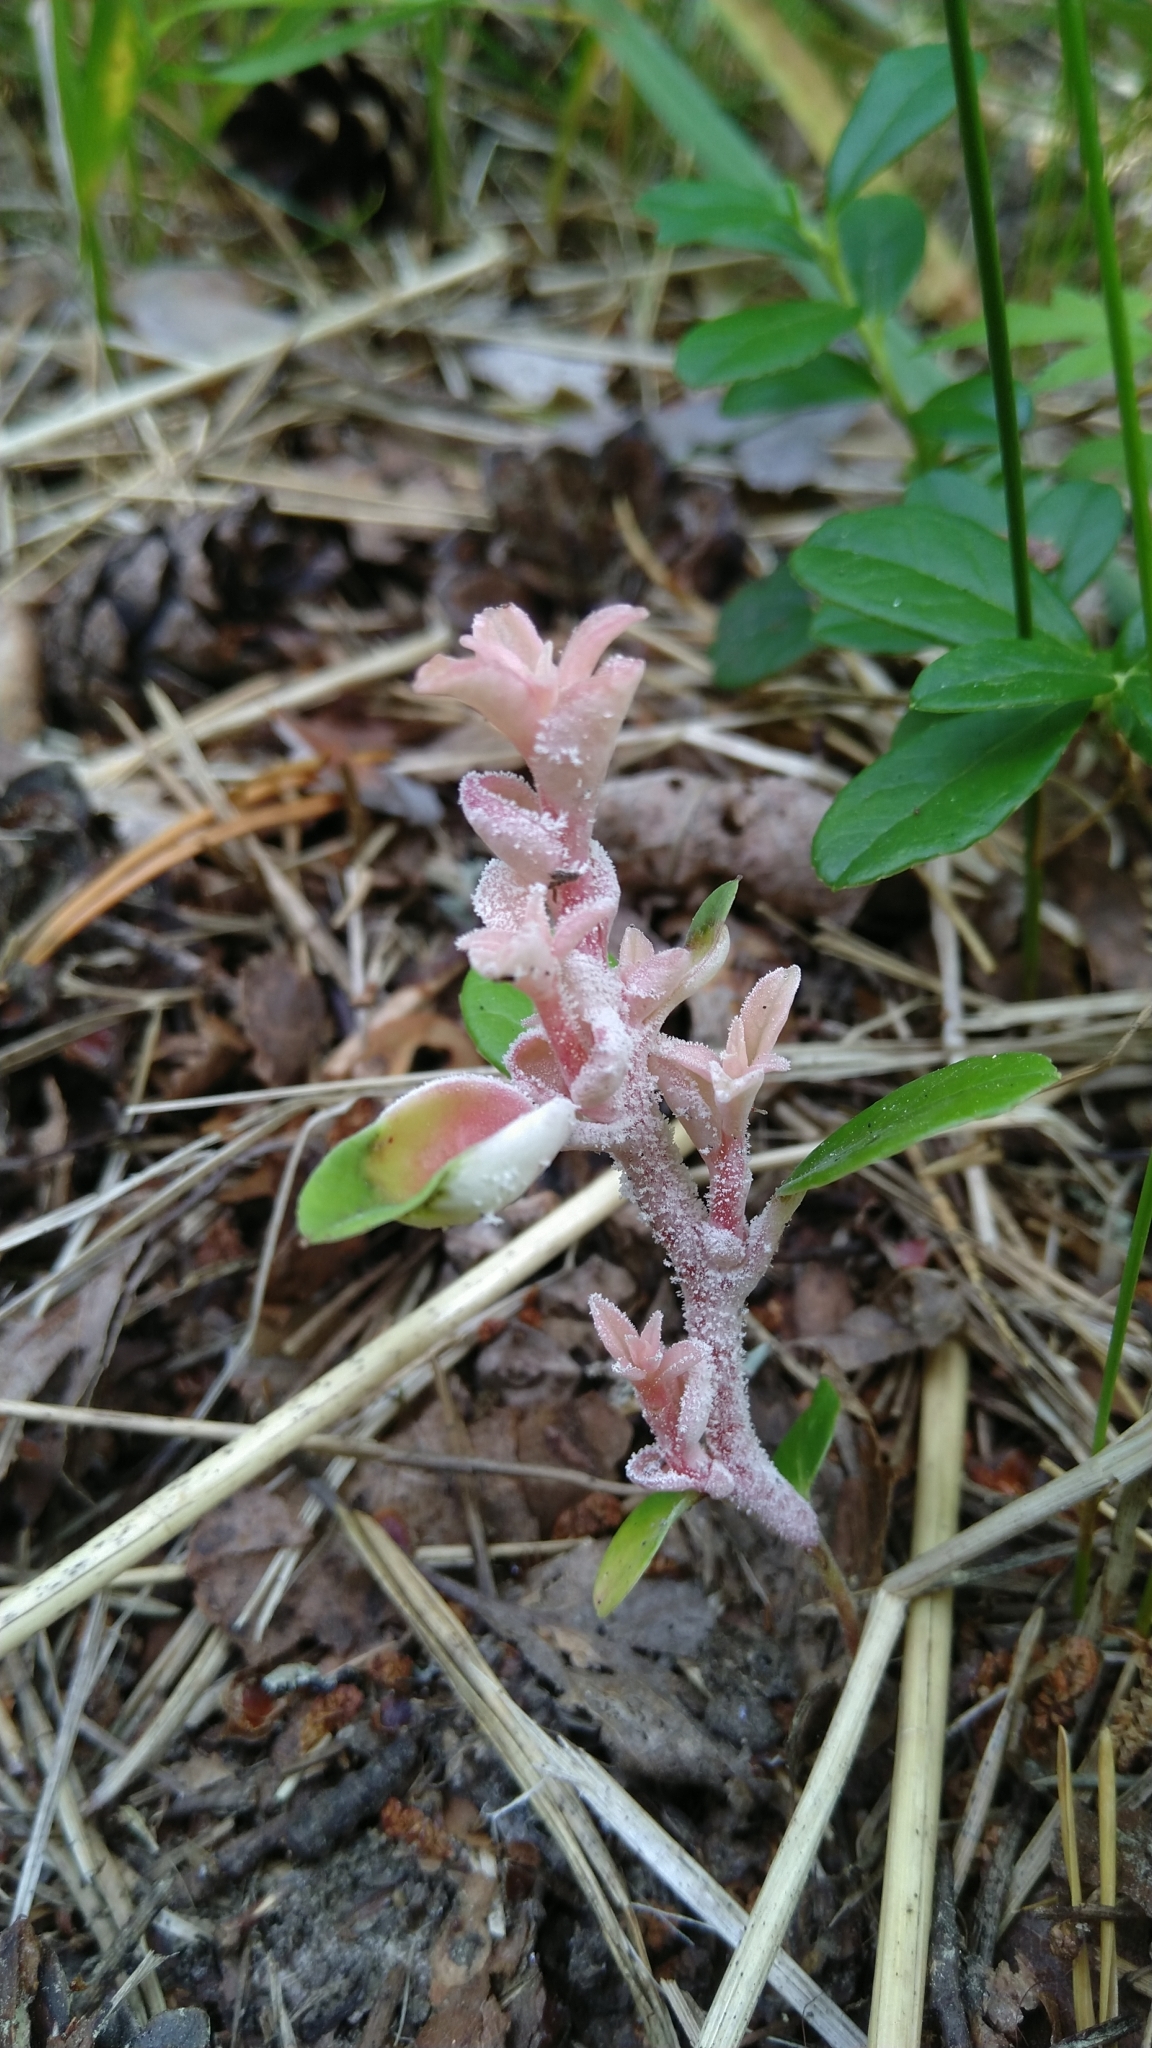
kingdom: Fungi
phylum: Basidiomycota
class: Exobasidiomycetes
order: Exobasidiales
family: Exobasidiaceae
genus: Exobasidium
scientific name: Exobasidium vaccinii
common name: Cowberry redleaf
